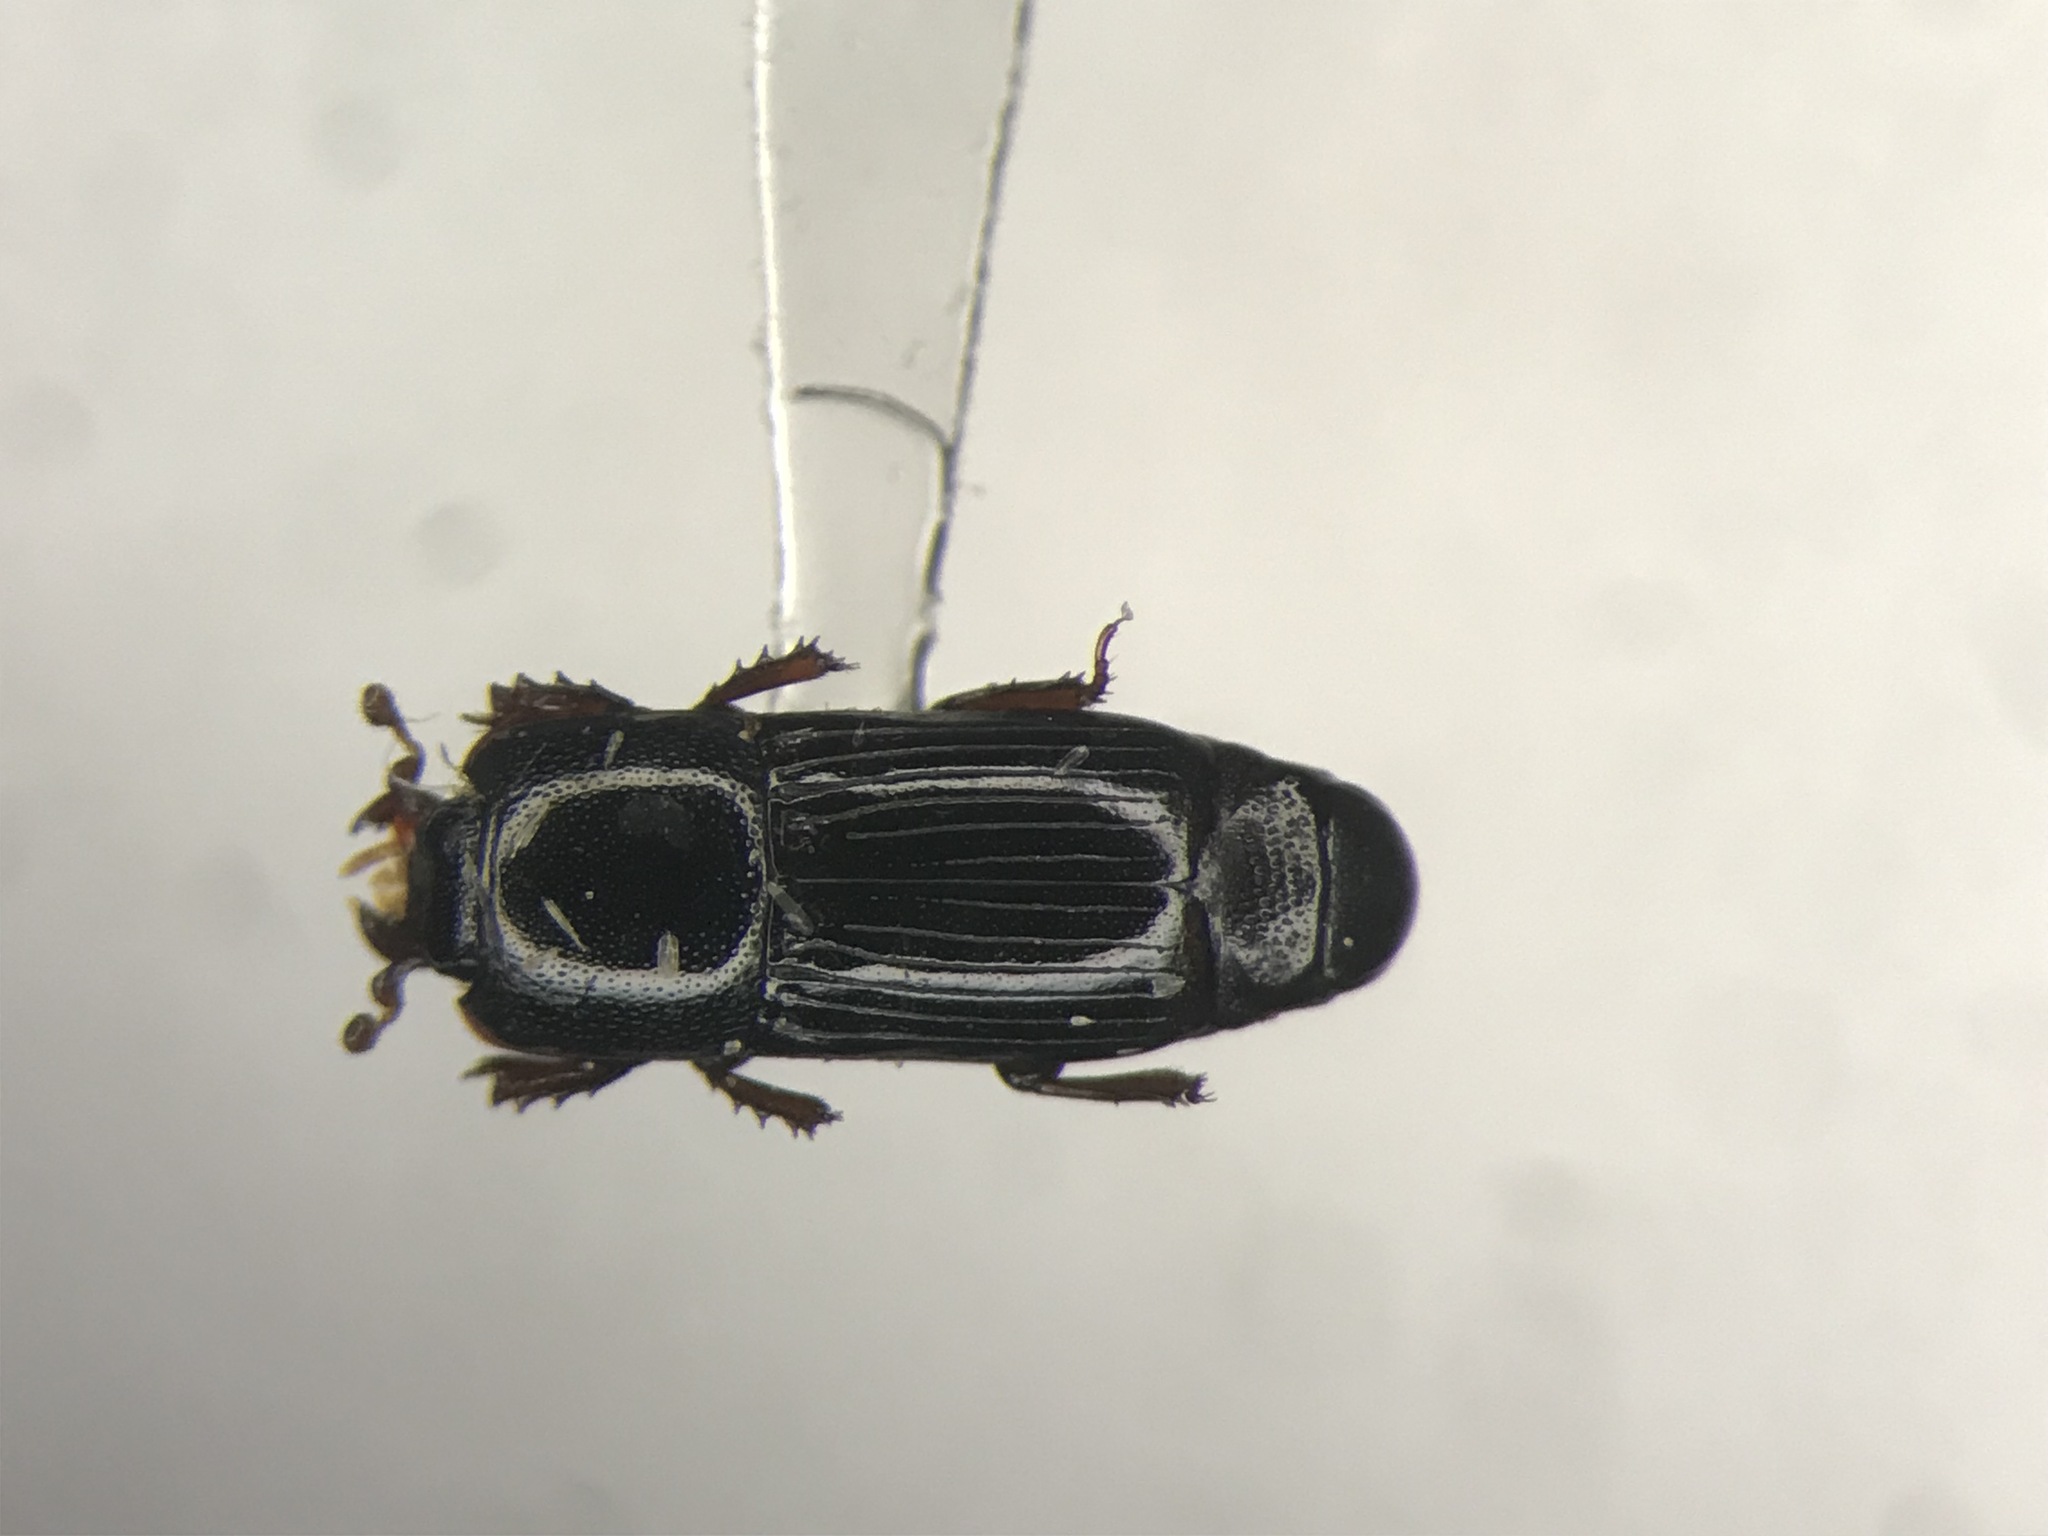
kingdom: Animalia
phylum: Arthropoda
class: Insecta
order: Coleoptera
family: Histeridae
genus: Platysoma
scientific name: Platysoma coarctatum
